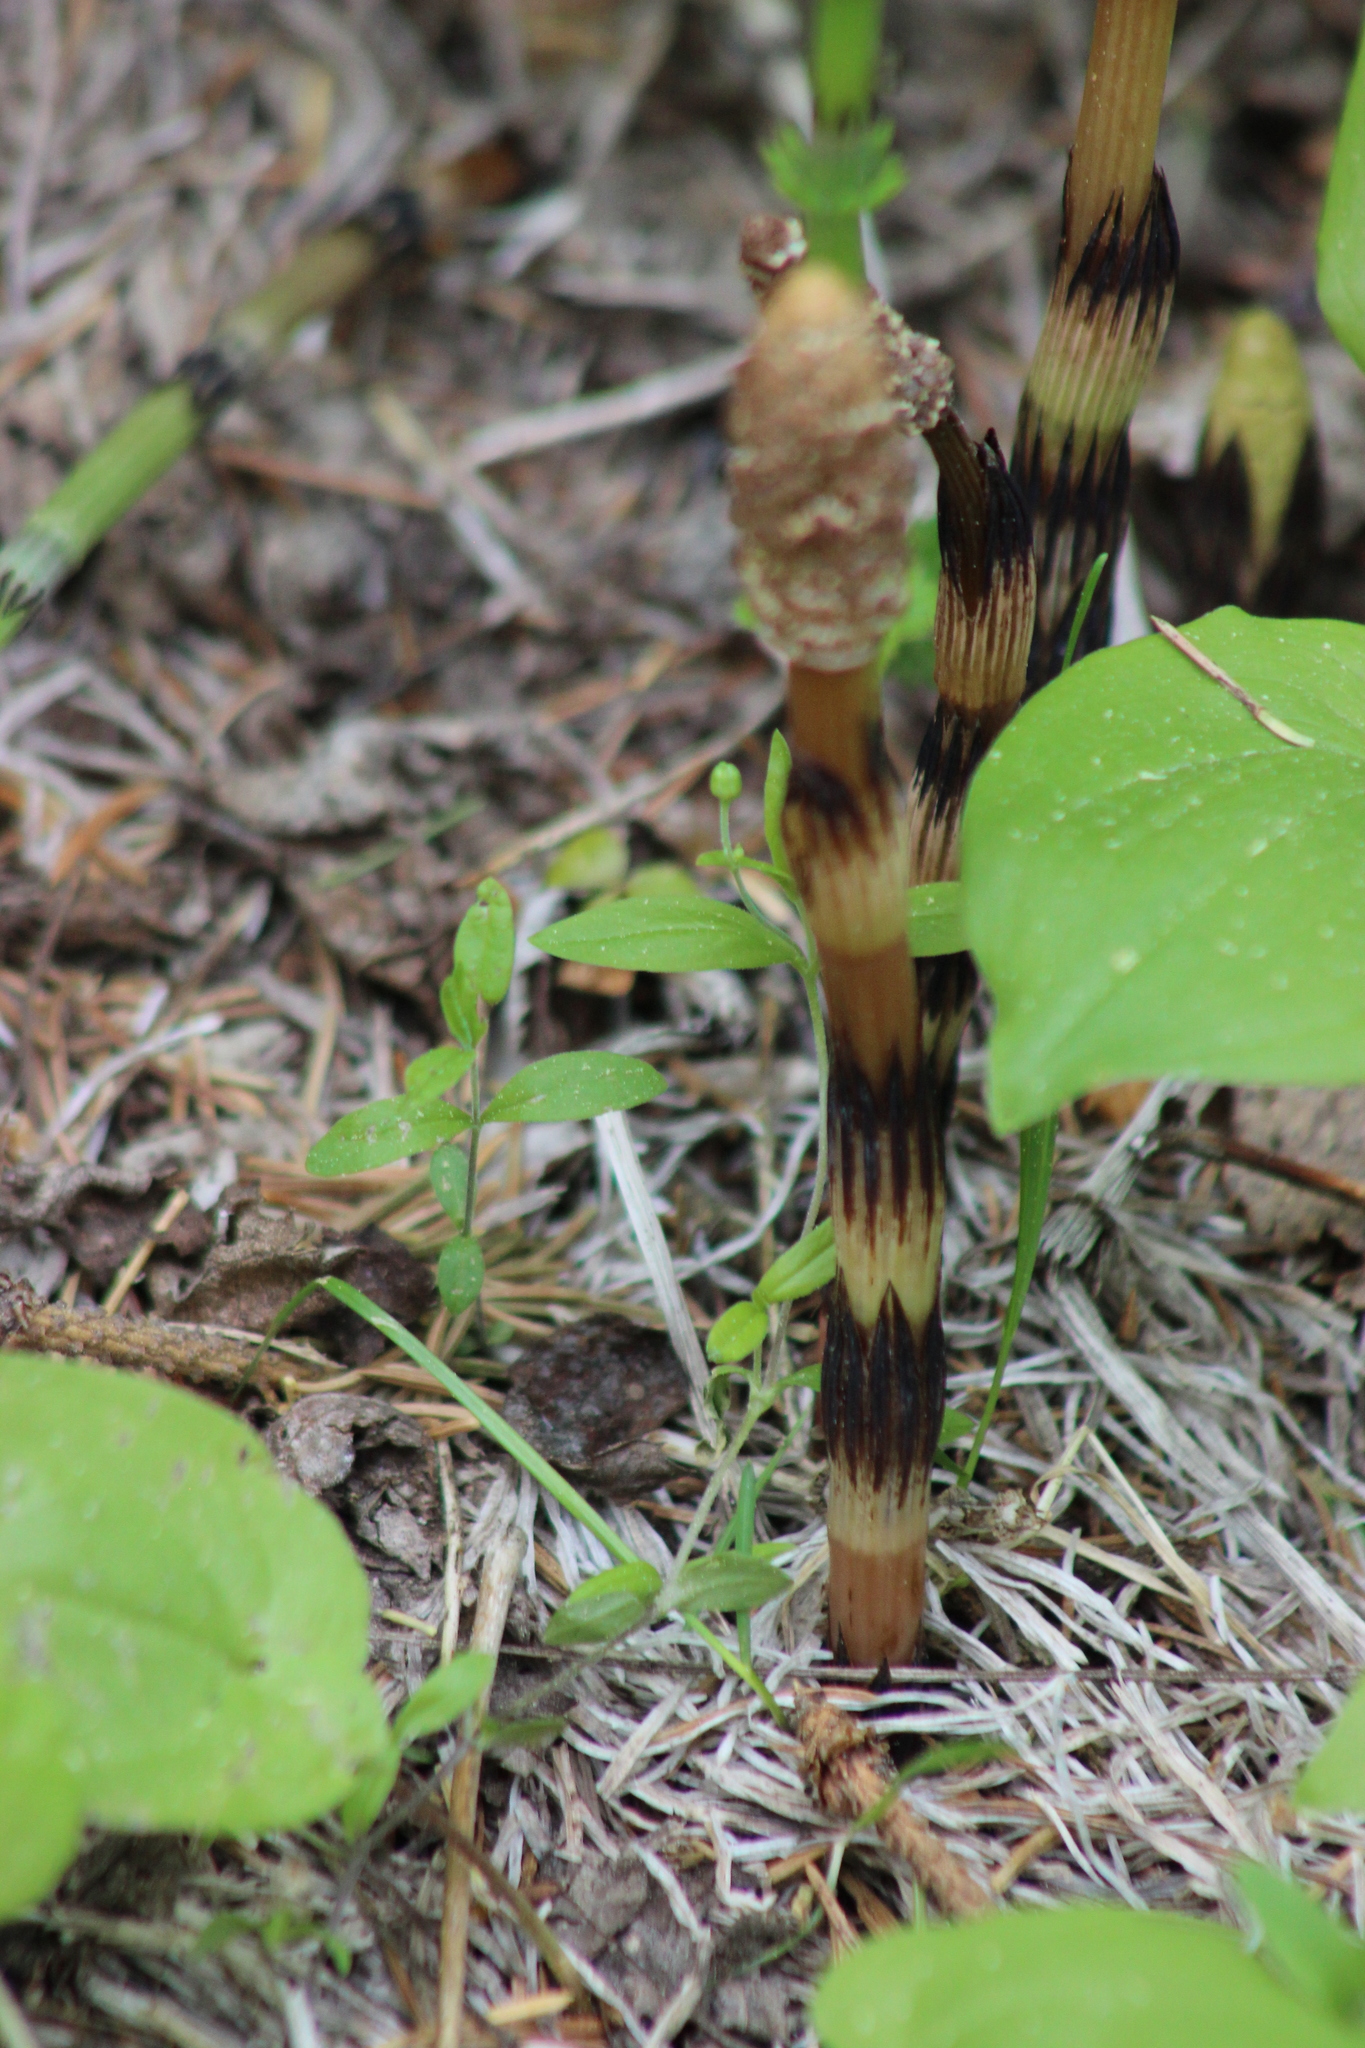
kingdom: Plantae
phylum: Tracheophyta
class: Polypodiopsida
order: Equisetales
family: Equisetaceae
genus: Equisetum
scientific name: Equisetum arvense
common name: Field horsetail
